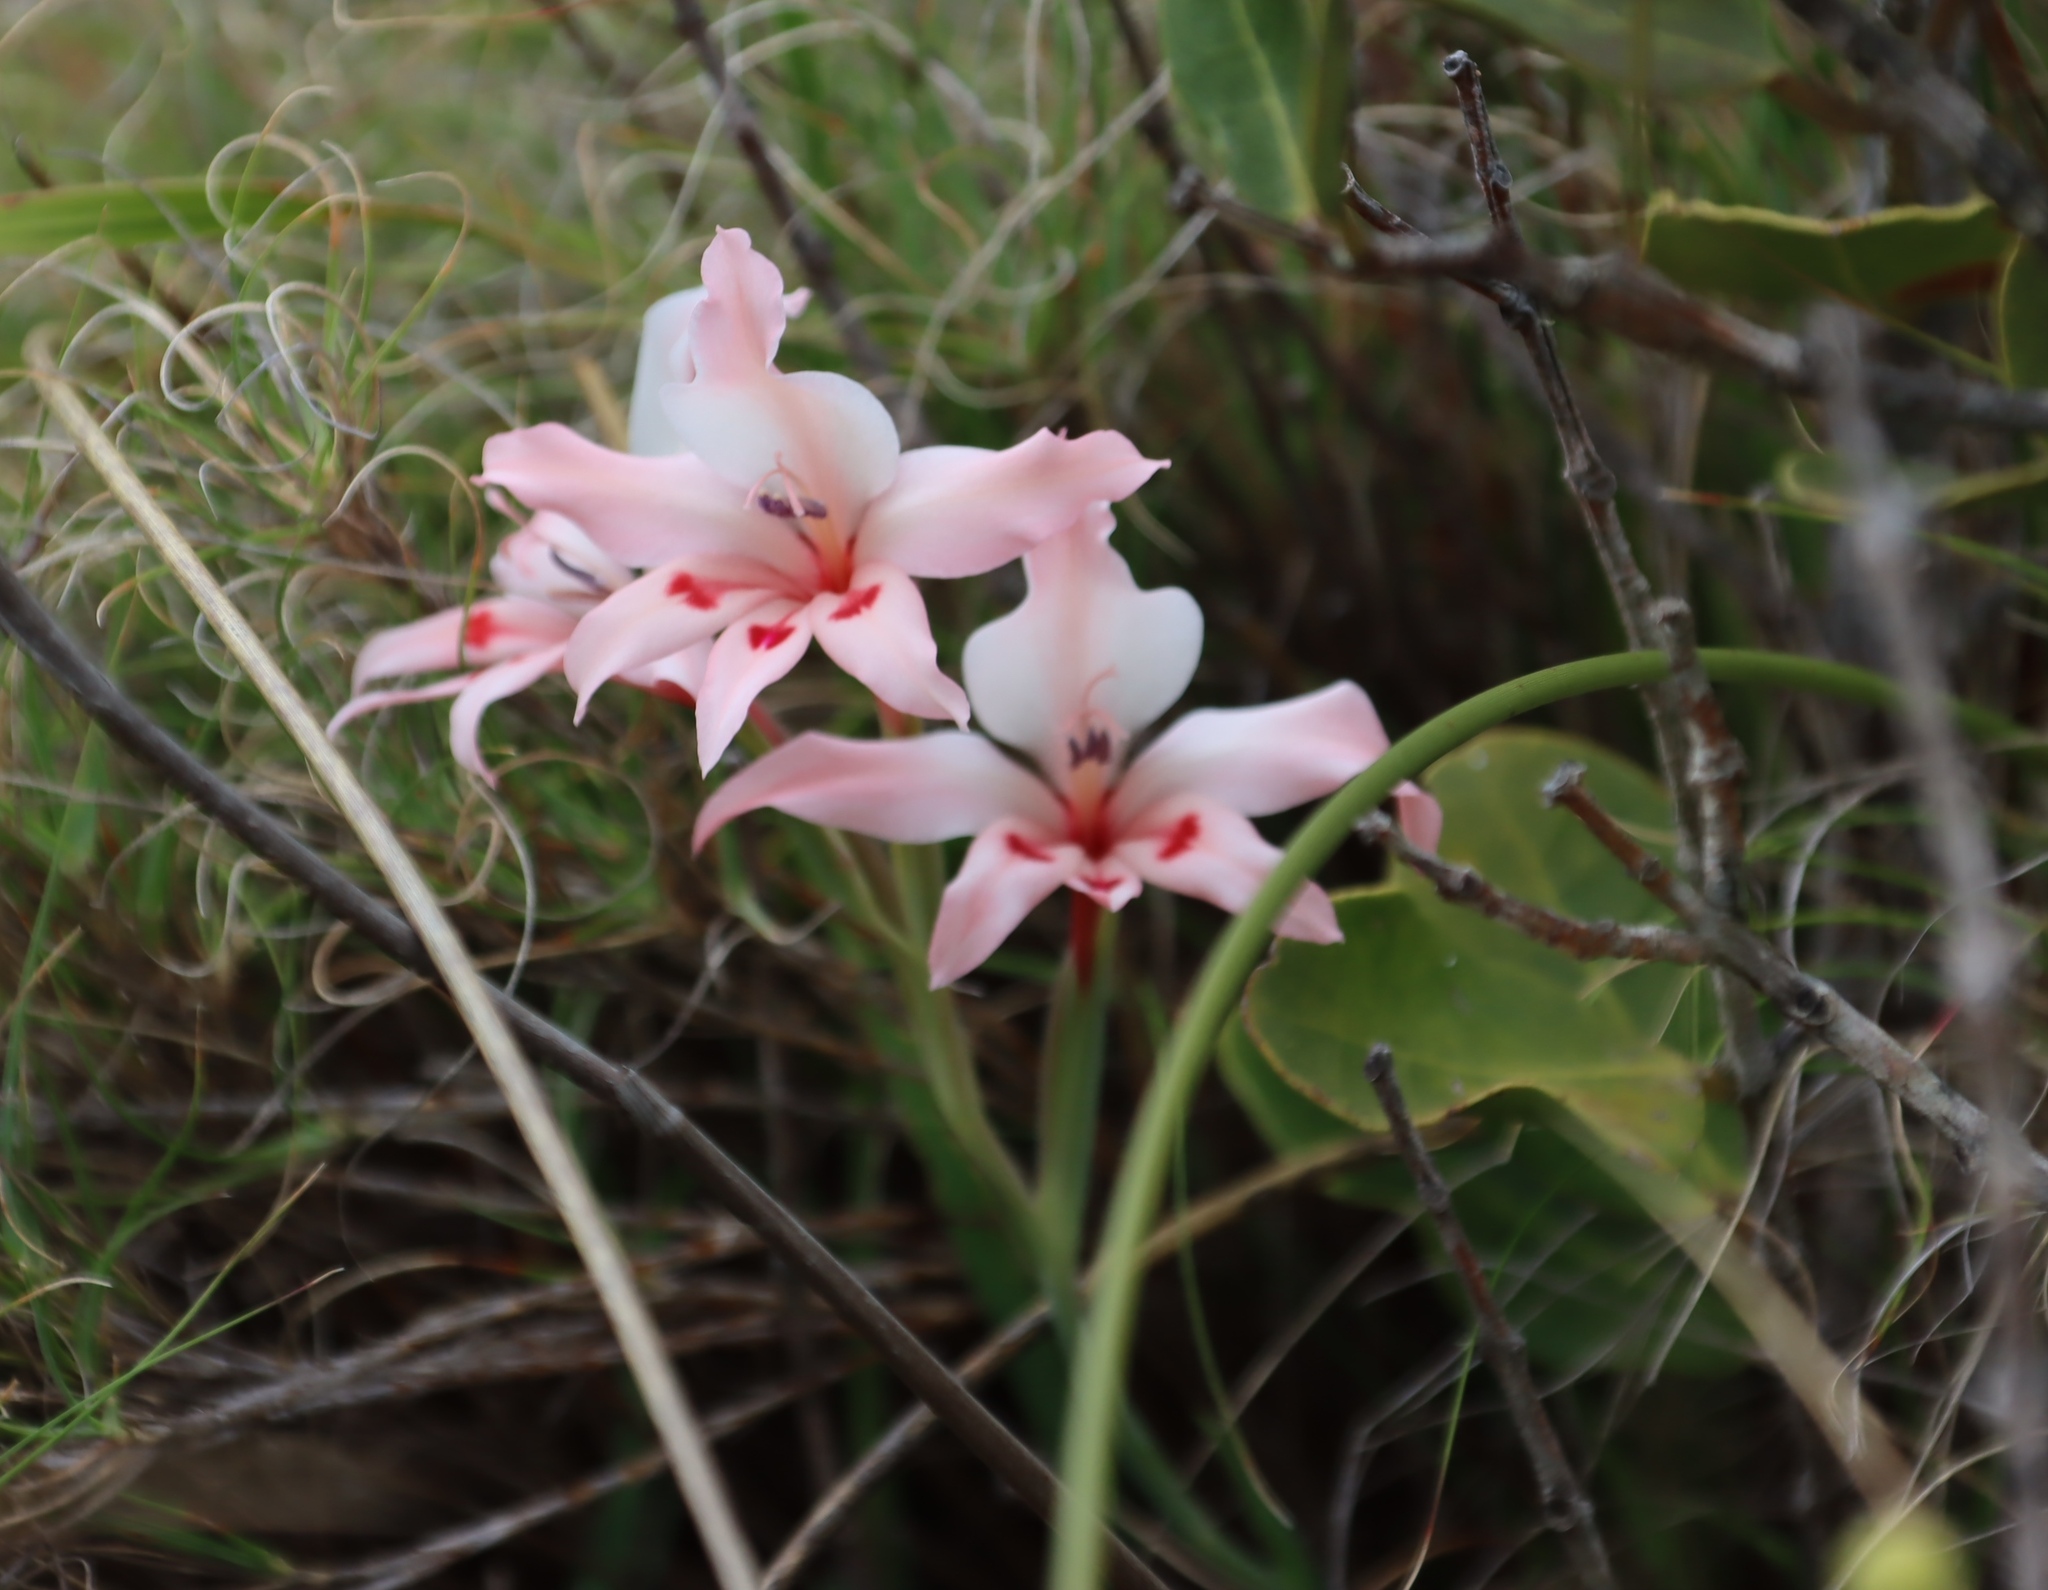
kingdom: Plantae
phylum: Tracheophyta
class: Liliopsida
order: Asparagales
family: Iridaceae
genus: Gladiolus
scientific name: Gladiolus carneus
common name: Painted-lady
